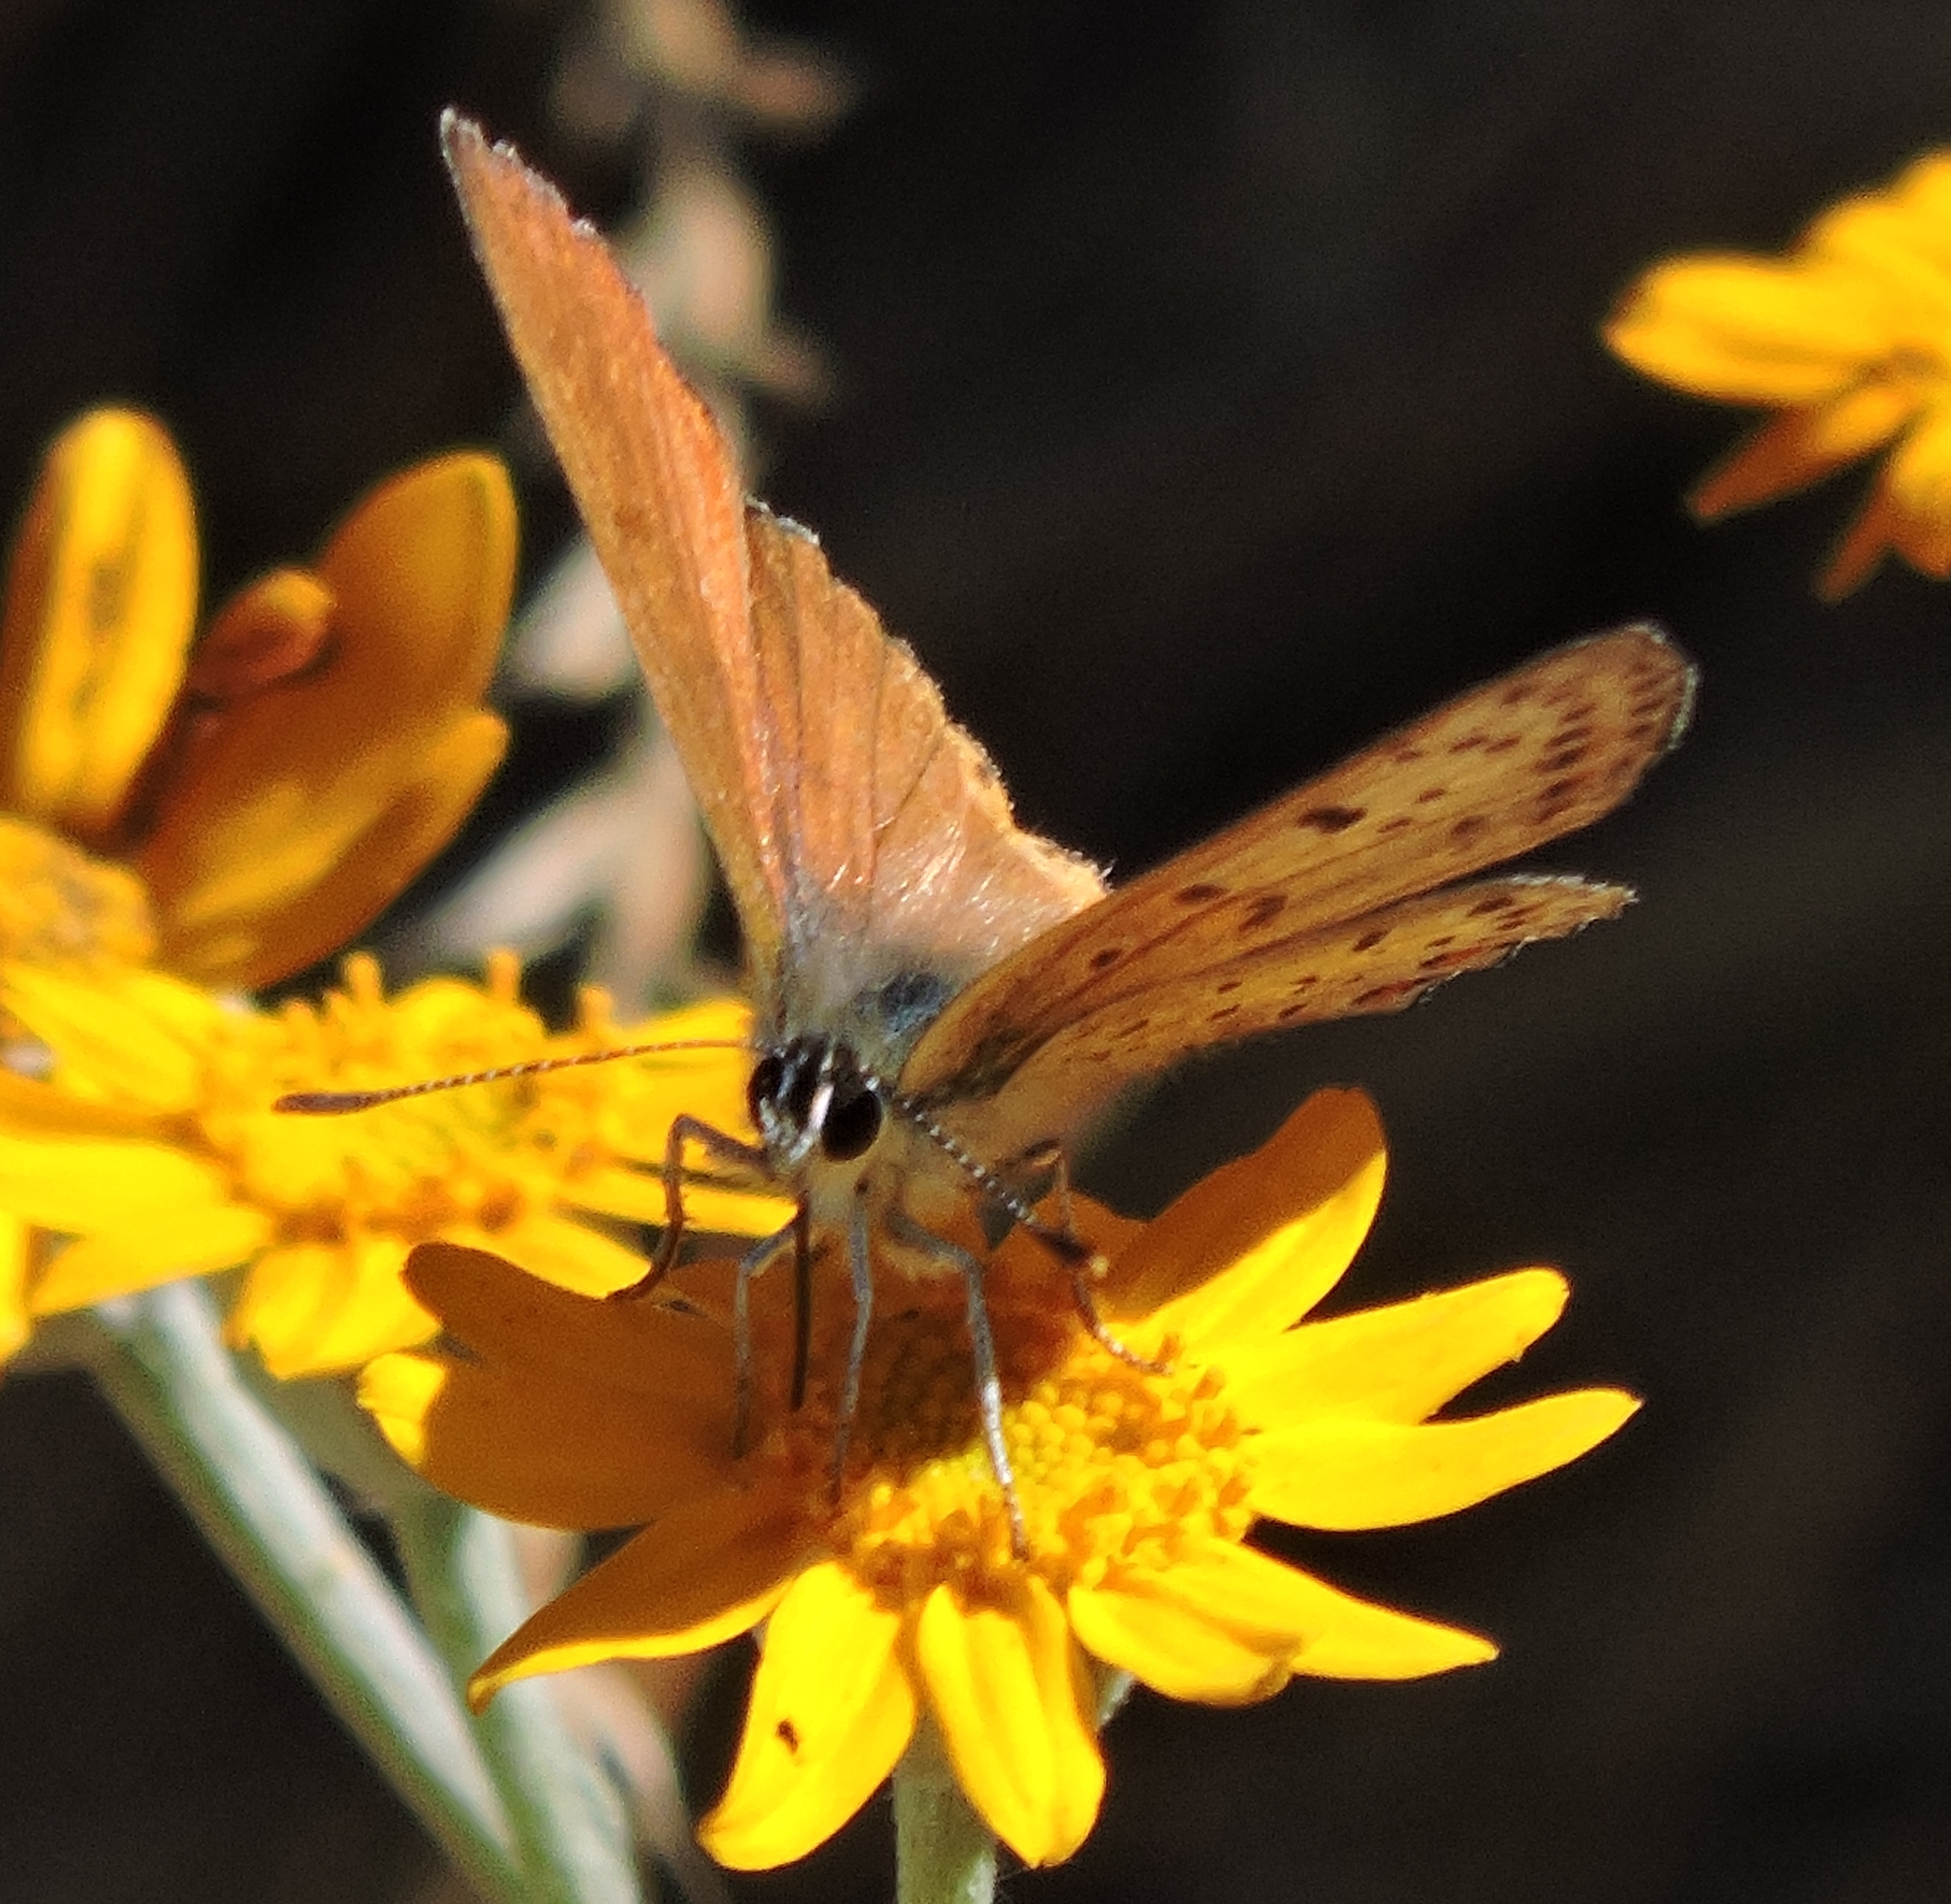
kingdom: Animalia
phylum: Arthropoda
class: Insecta
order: Lepidoptera
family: Lycaenidae
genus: Tharsalea
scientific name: Tharsalea gorgon
